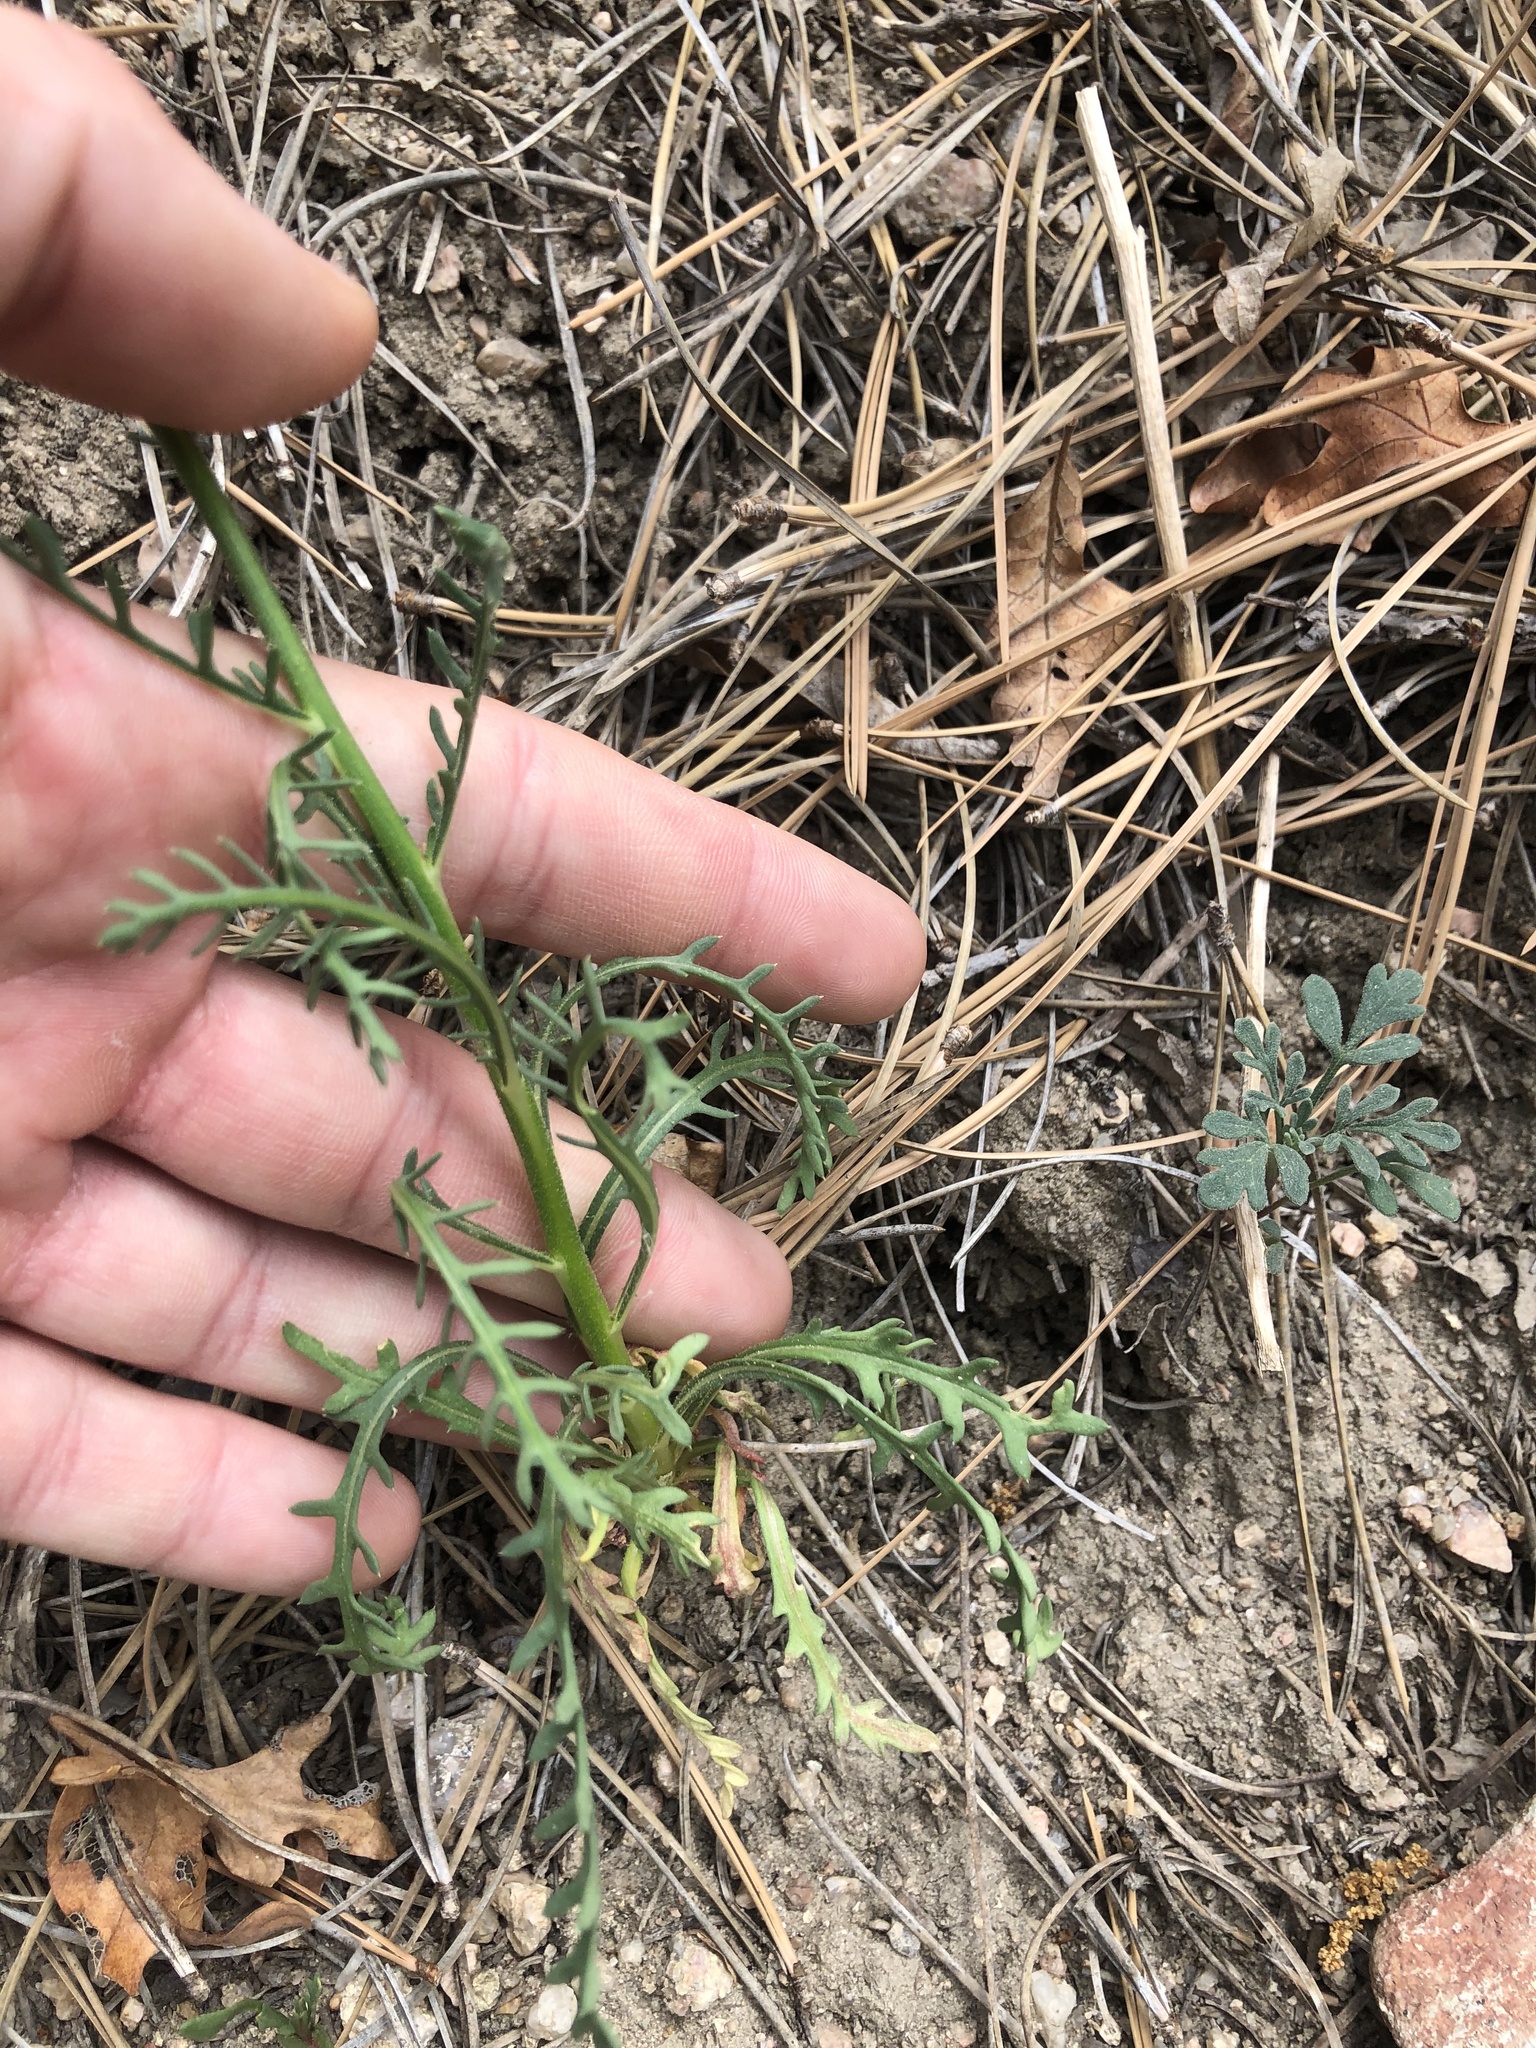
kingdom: Plantae
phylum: Tracheophyta
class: Magnoliopsida
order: Ericales
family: Polemoniaceae
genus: Aliciella
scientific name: Aliciella pinnatifida
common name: Sticky gilia
